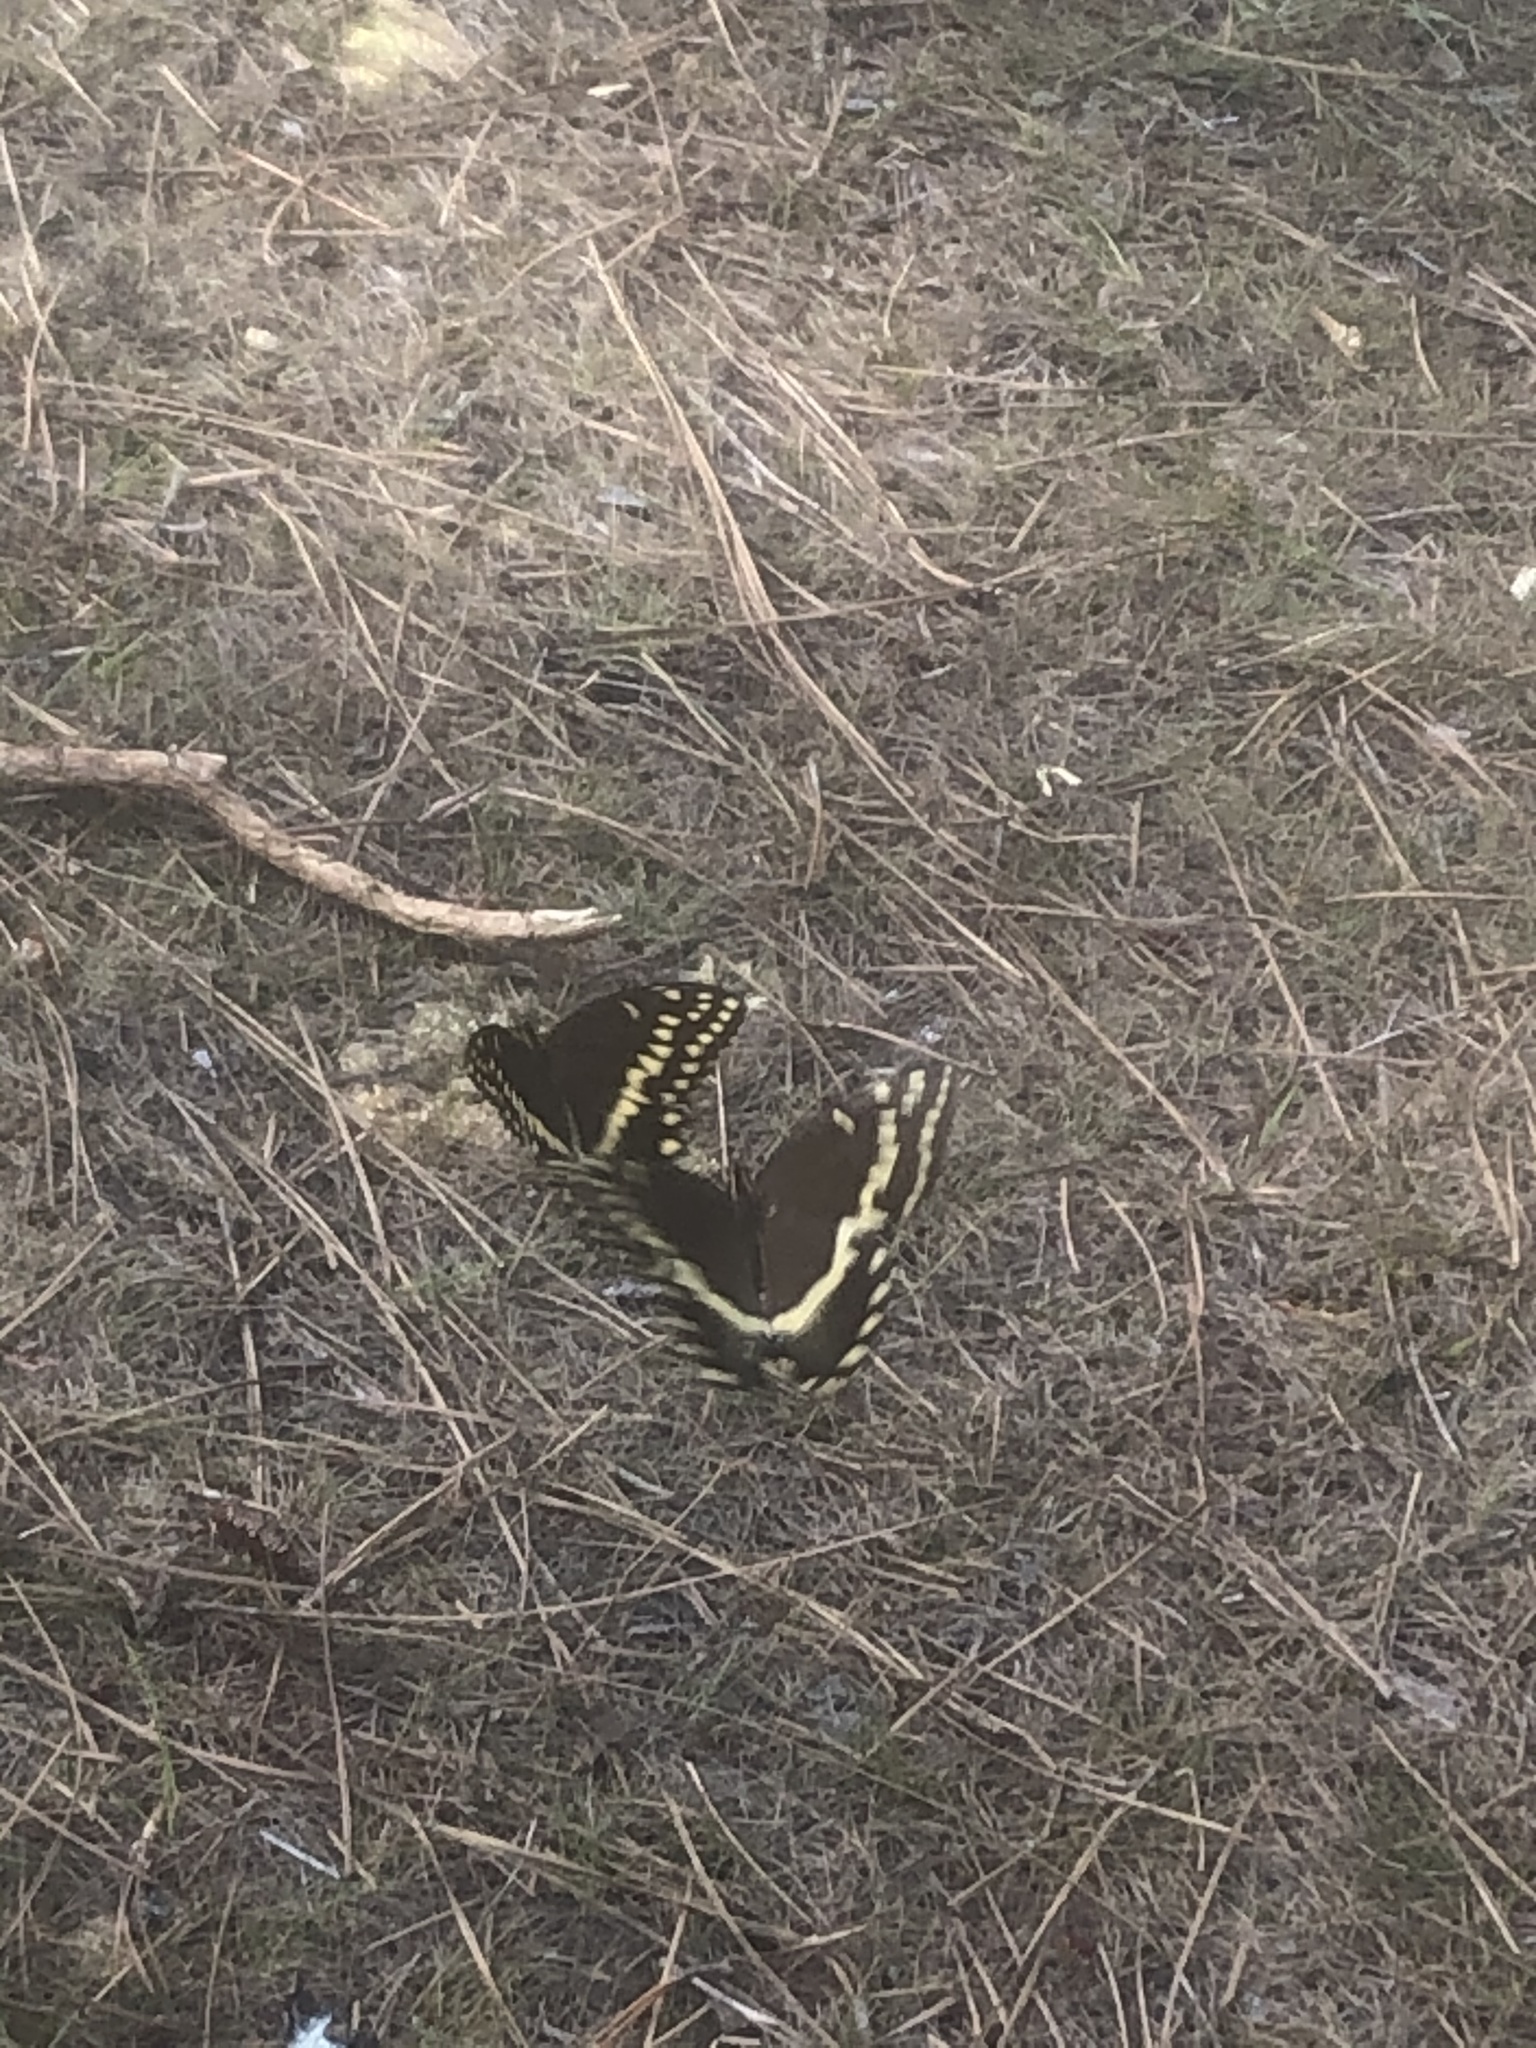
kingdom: Animalia
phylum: Arthropoda
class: Insecta
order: Lepidoptera
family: Papilionidae
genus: Papilio
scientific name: Papilio palamedes
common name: Palamedes swallowtail
